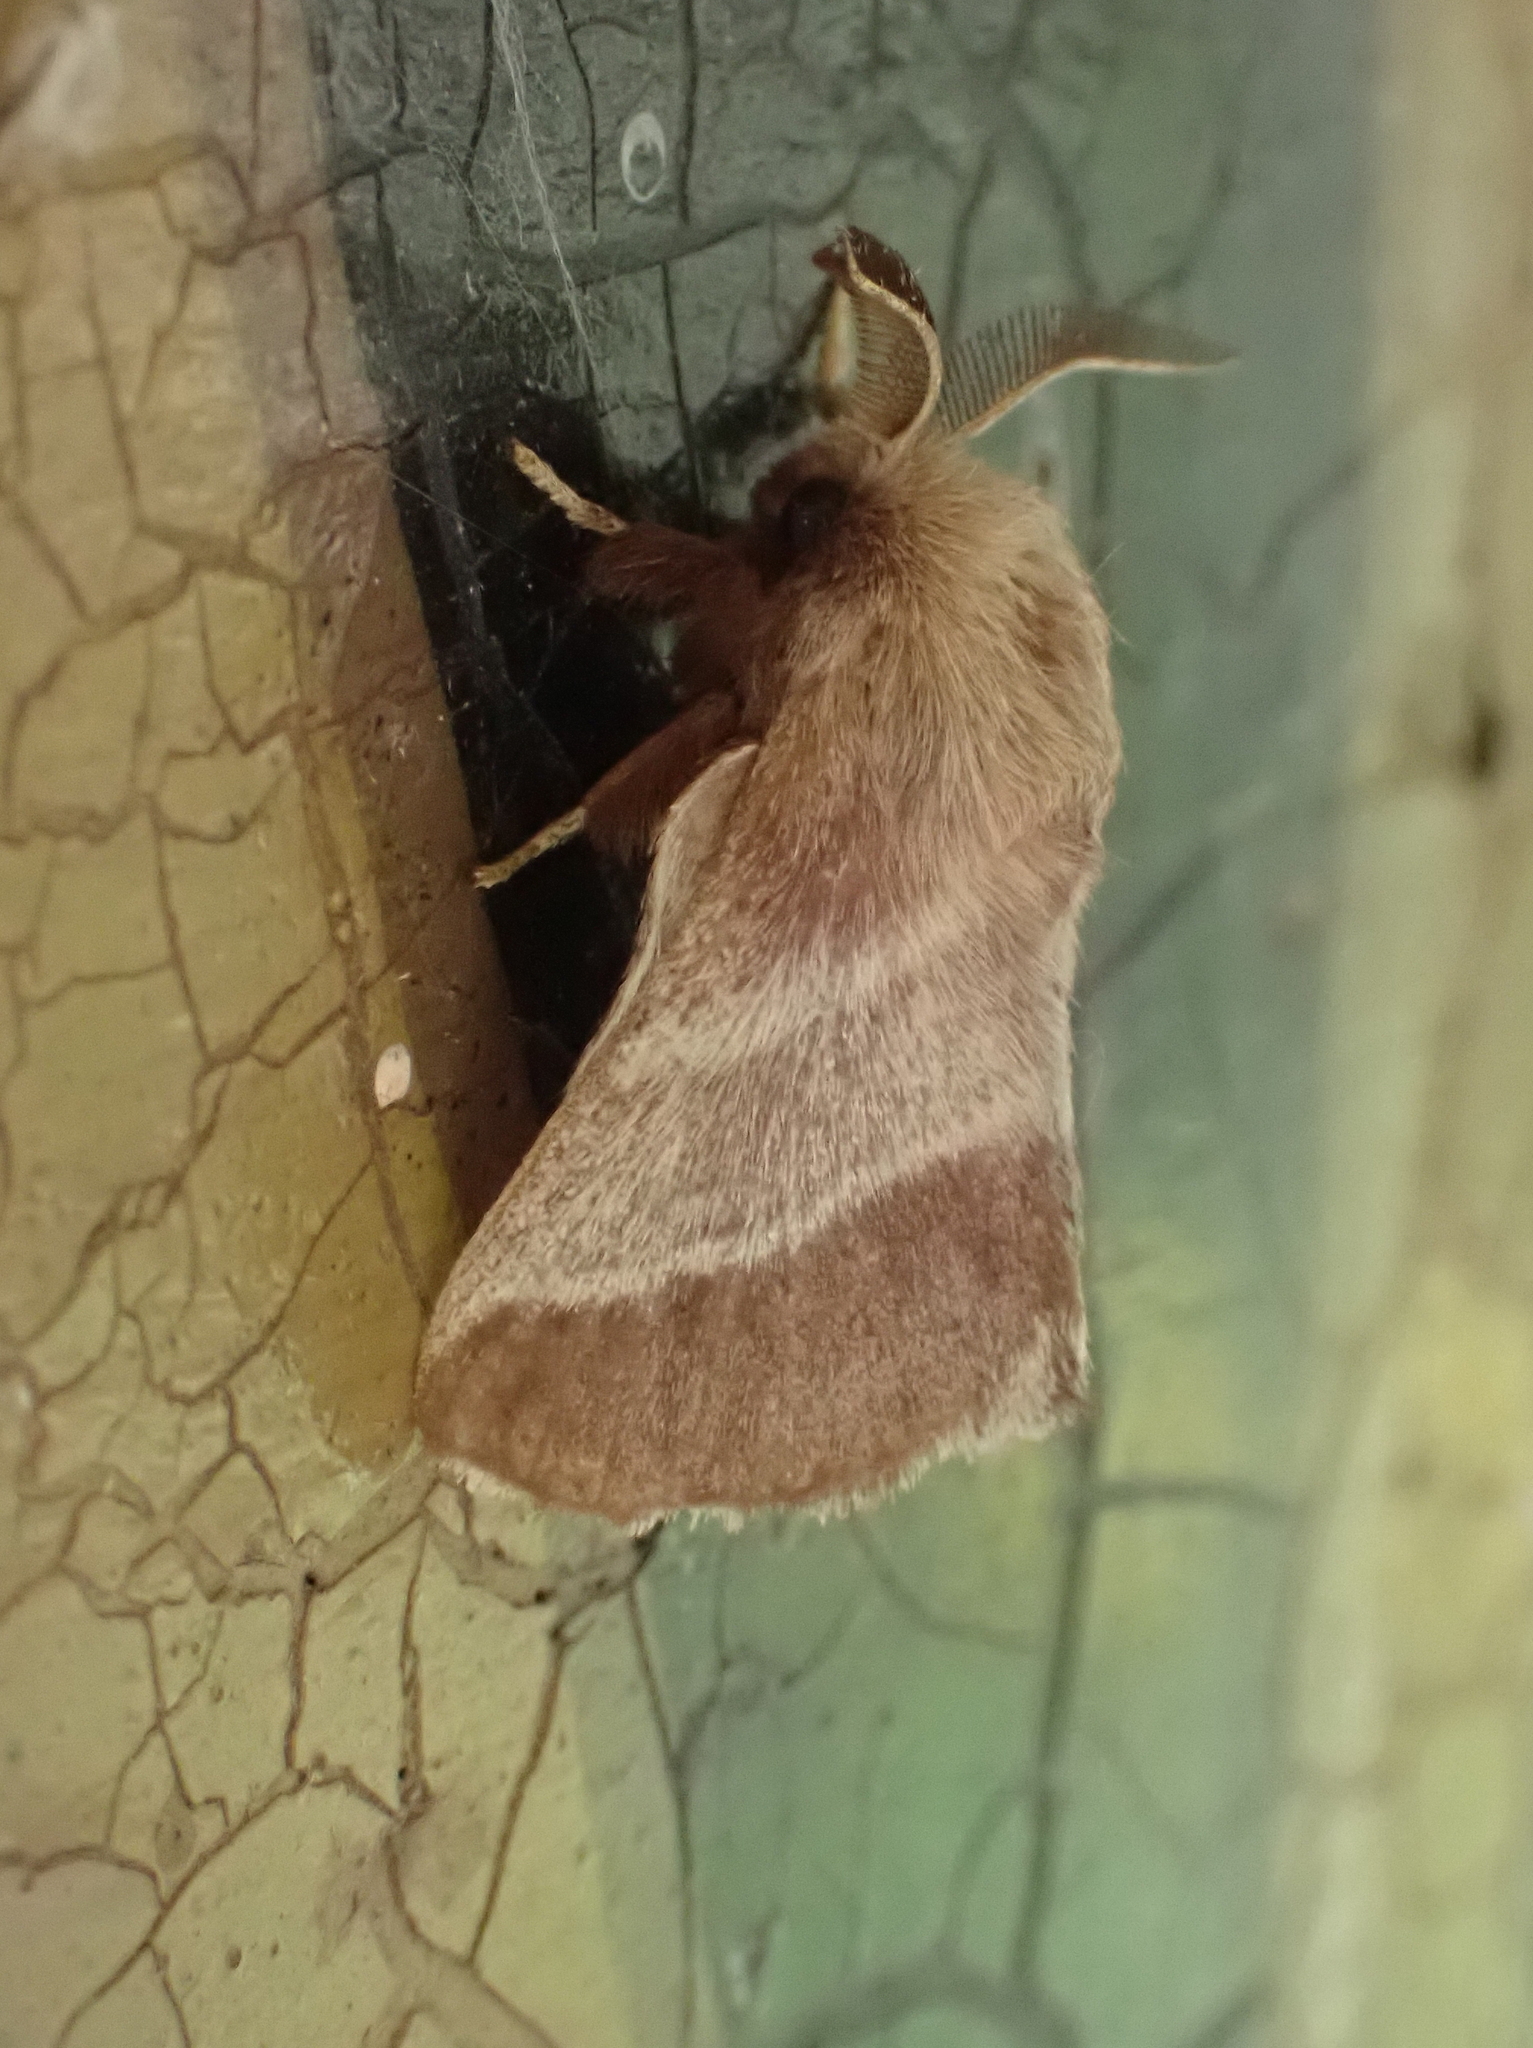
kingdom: Animalia
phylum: Arthropoda
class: Insecta
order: Lepidoptera
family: Lasiocampidae
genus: Malacosoma
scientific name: Malacosoma americana
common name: Eastern tent caterpillar moth
